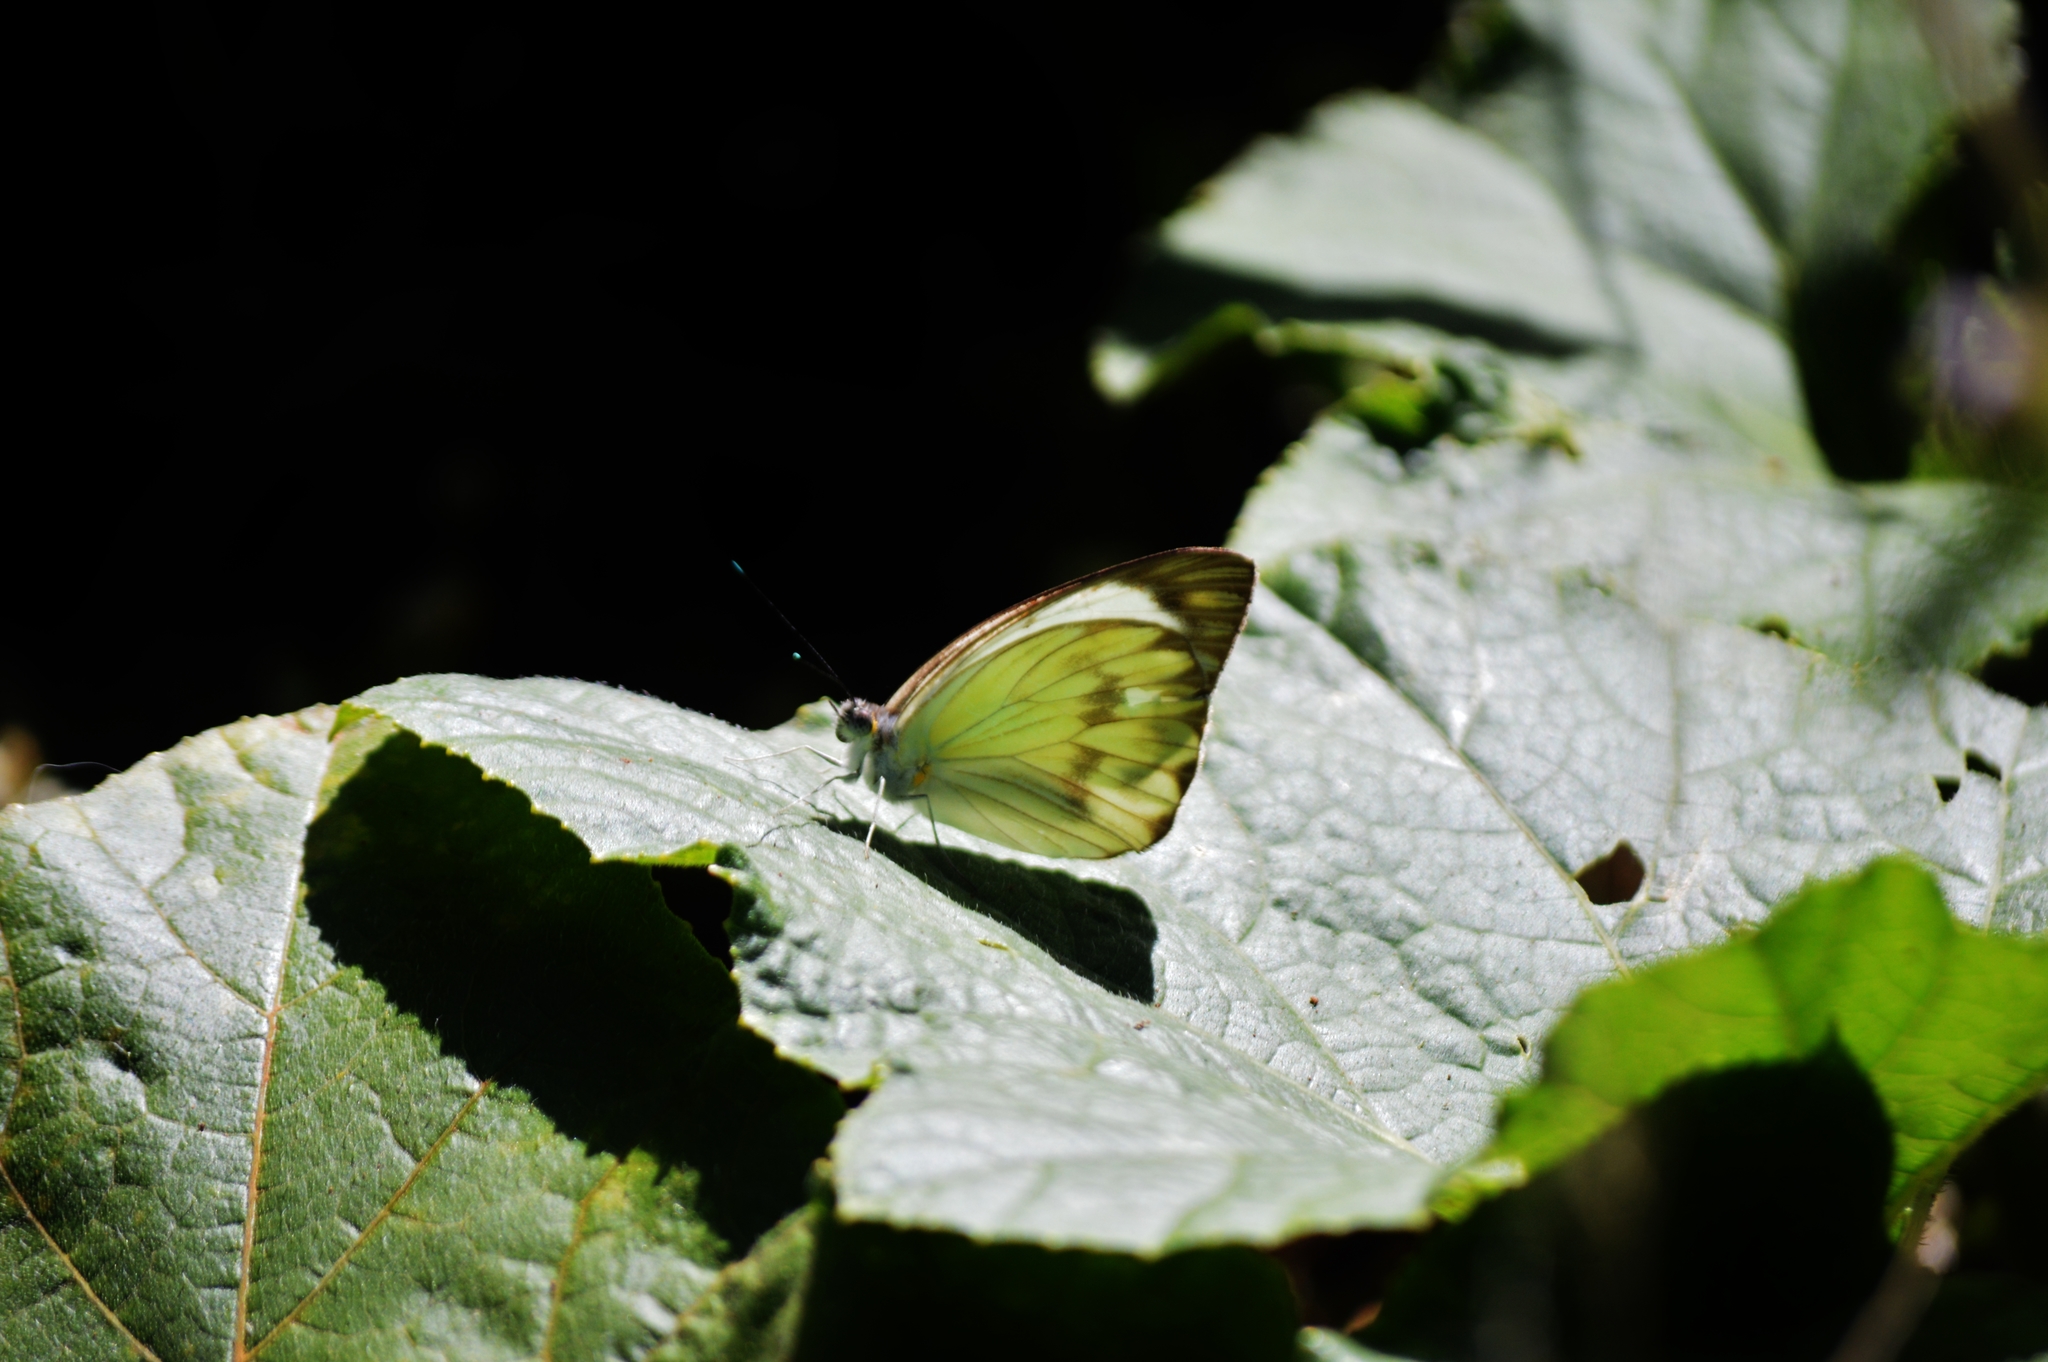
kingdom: Animalia
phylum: Arthropoda
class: Insecta
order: Lepidoptera
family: Pieridae
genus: Ascia
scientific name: Ascia monuste
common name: Great southern white
